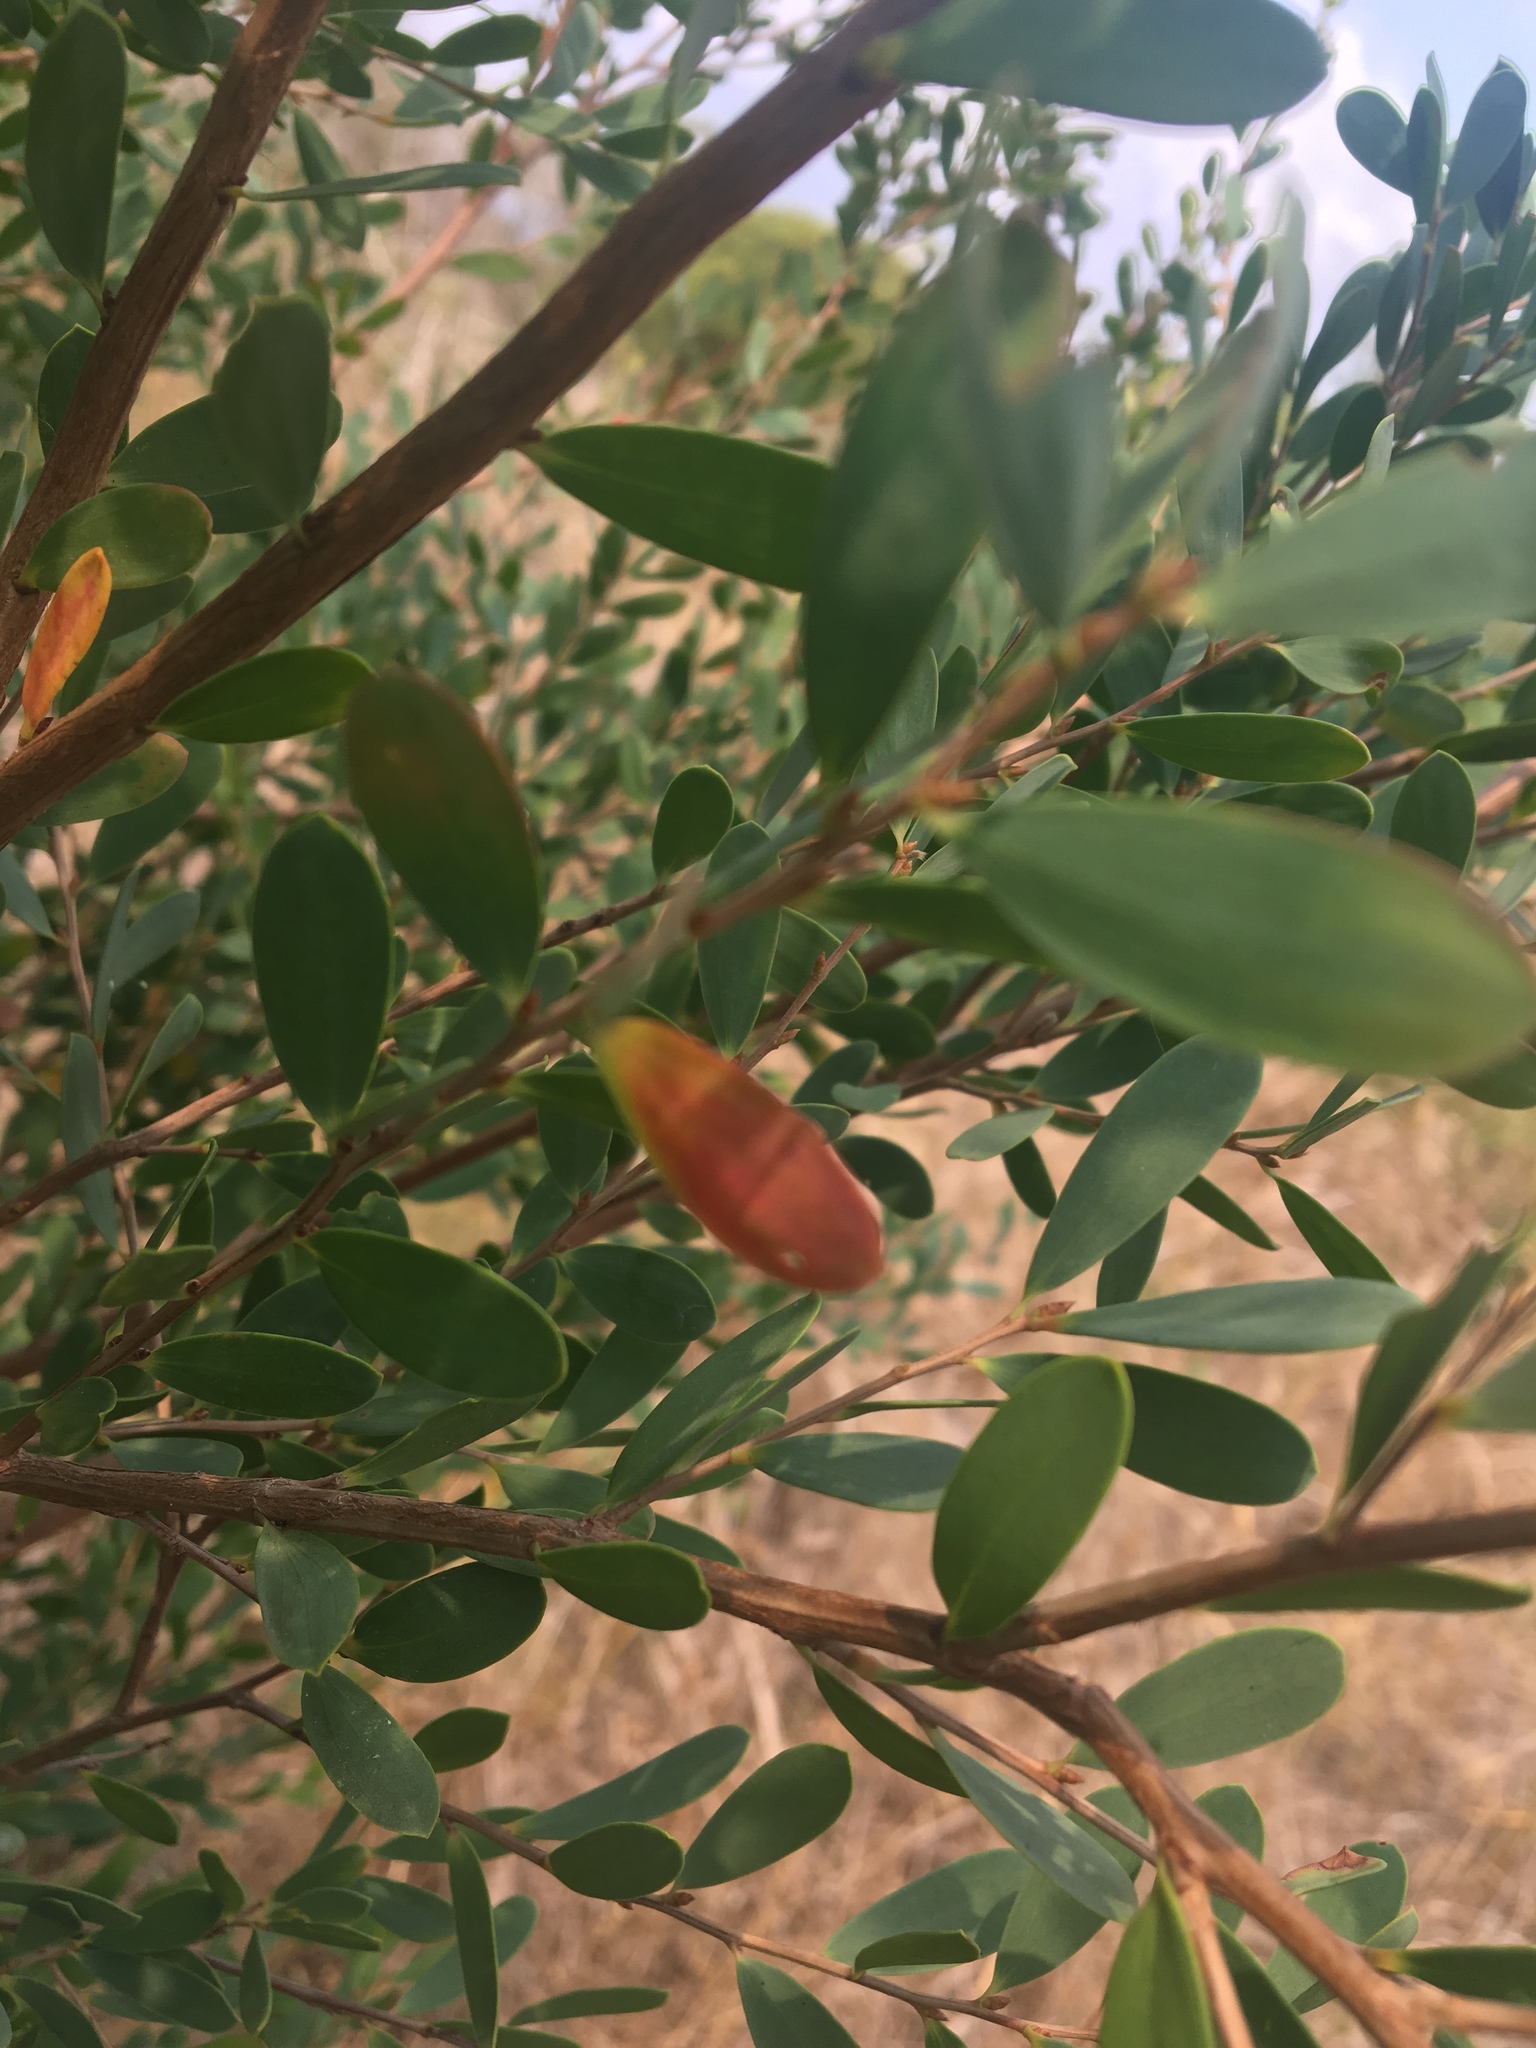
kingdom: Plantae
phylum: Tracheophyta
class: Magnoliopsida
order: Myrtales
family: Myrtaceae
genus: Leptospermum
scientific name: Leptospermum laevigatum
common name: Australian teatree
